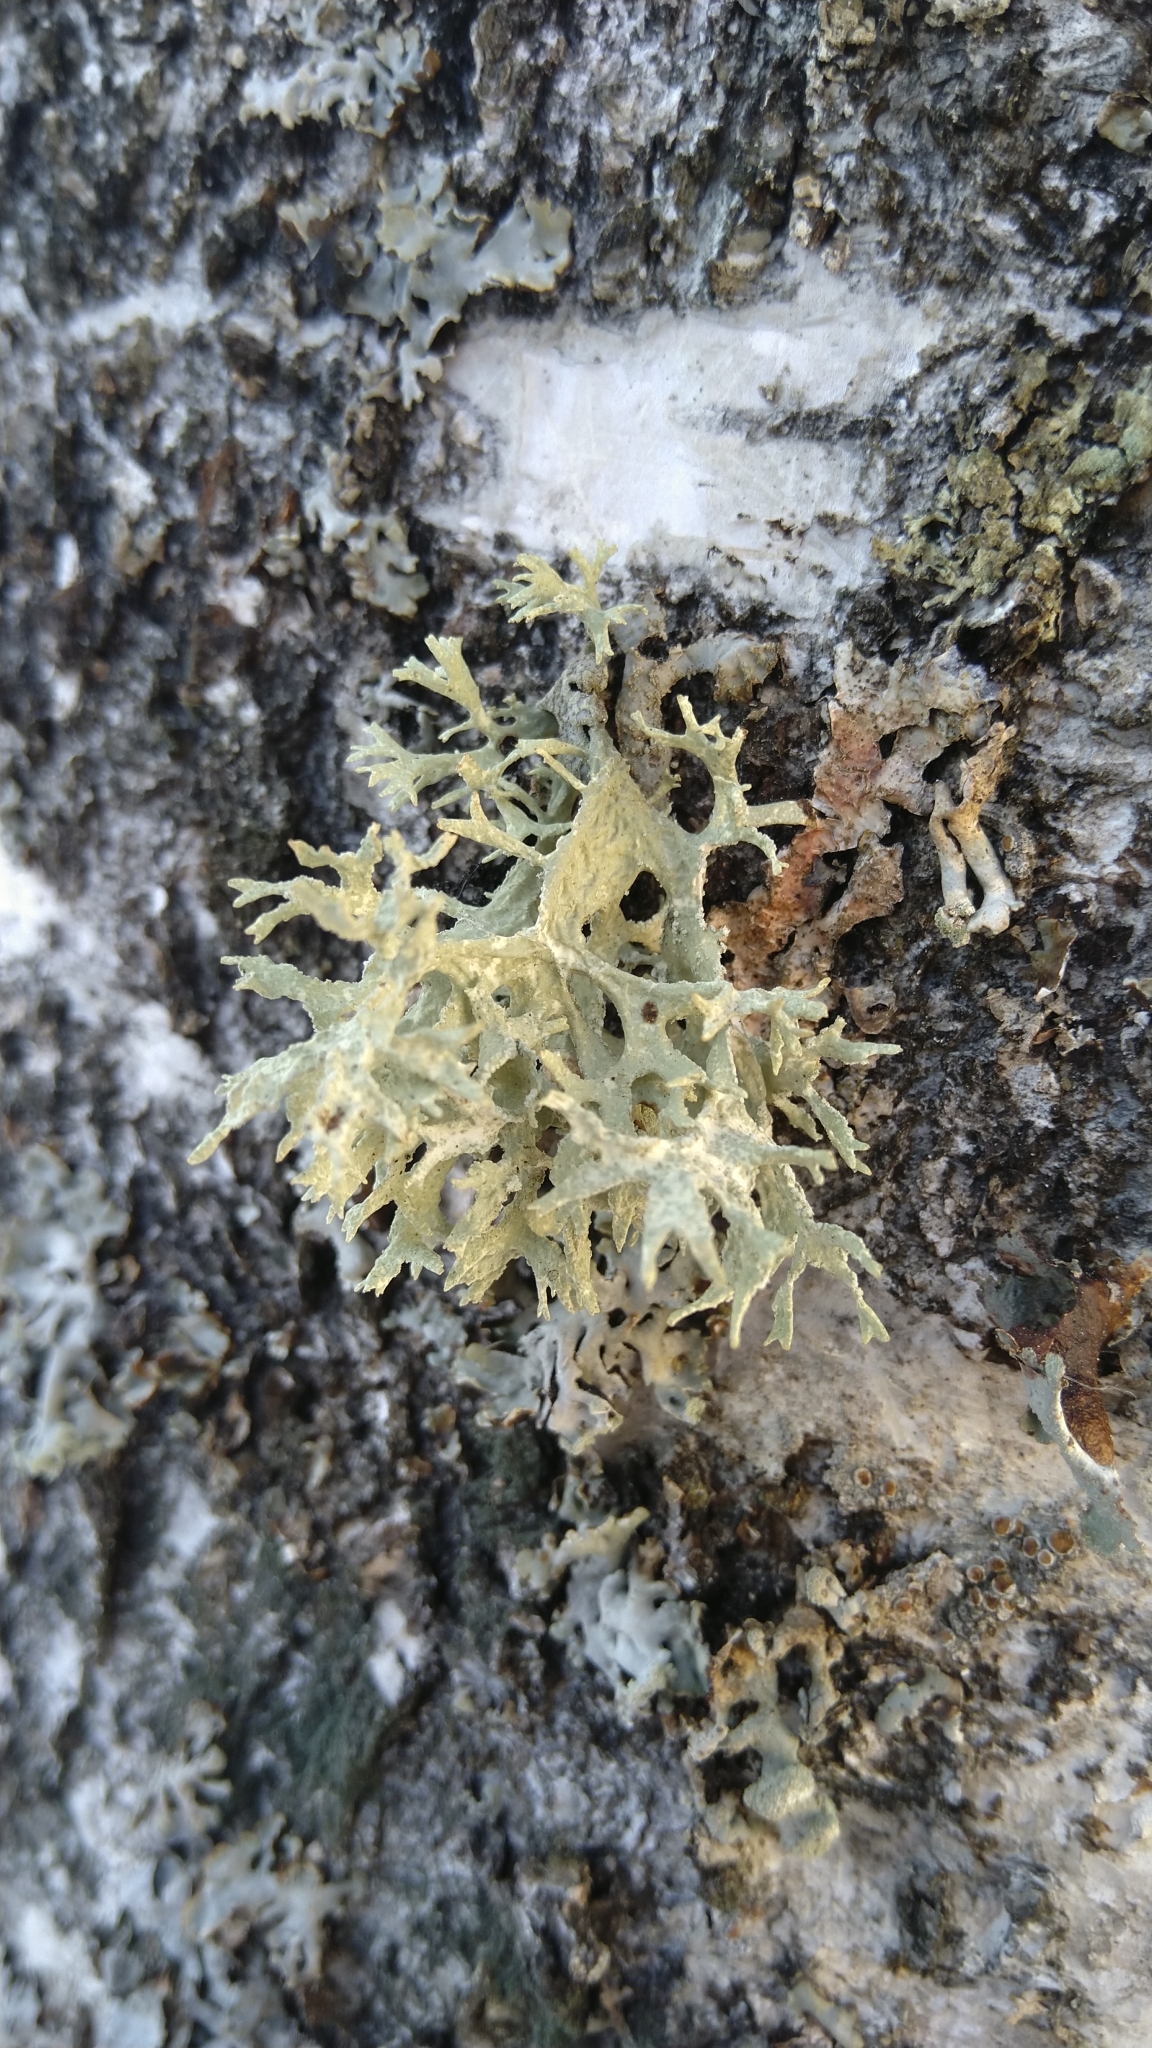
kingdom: Fungi
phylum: Ascomycota
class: Lecanoromycetes
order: Lecanorales
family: Parmeliaceae
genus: Evernia
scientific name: Evernia prunastri
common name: Oak moss
